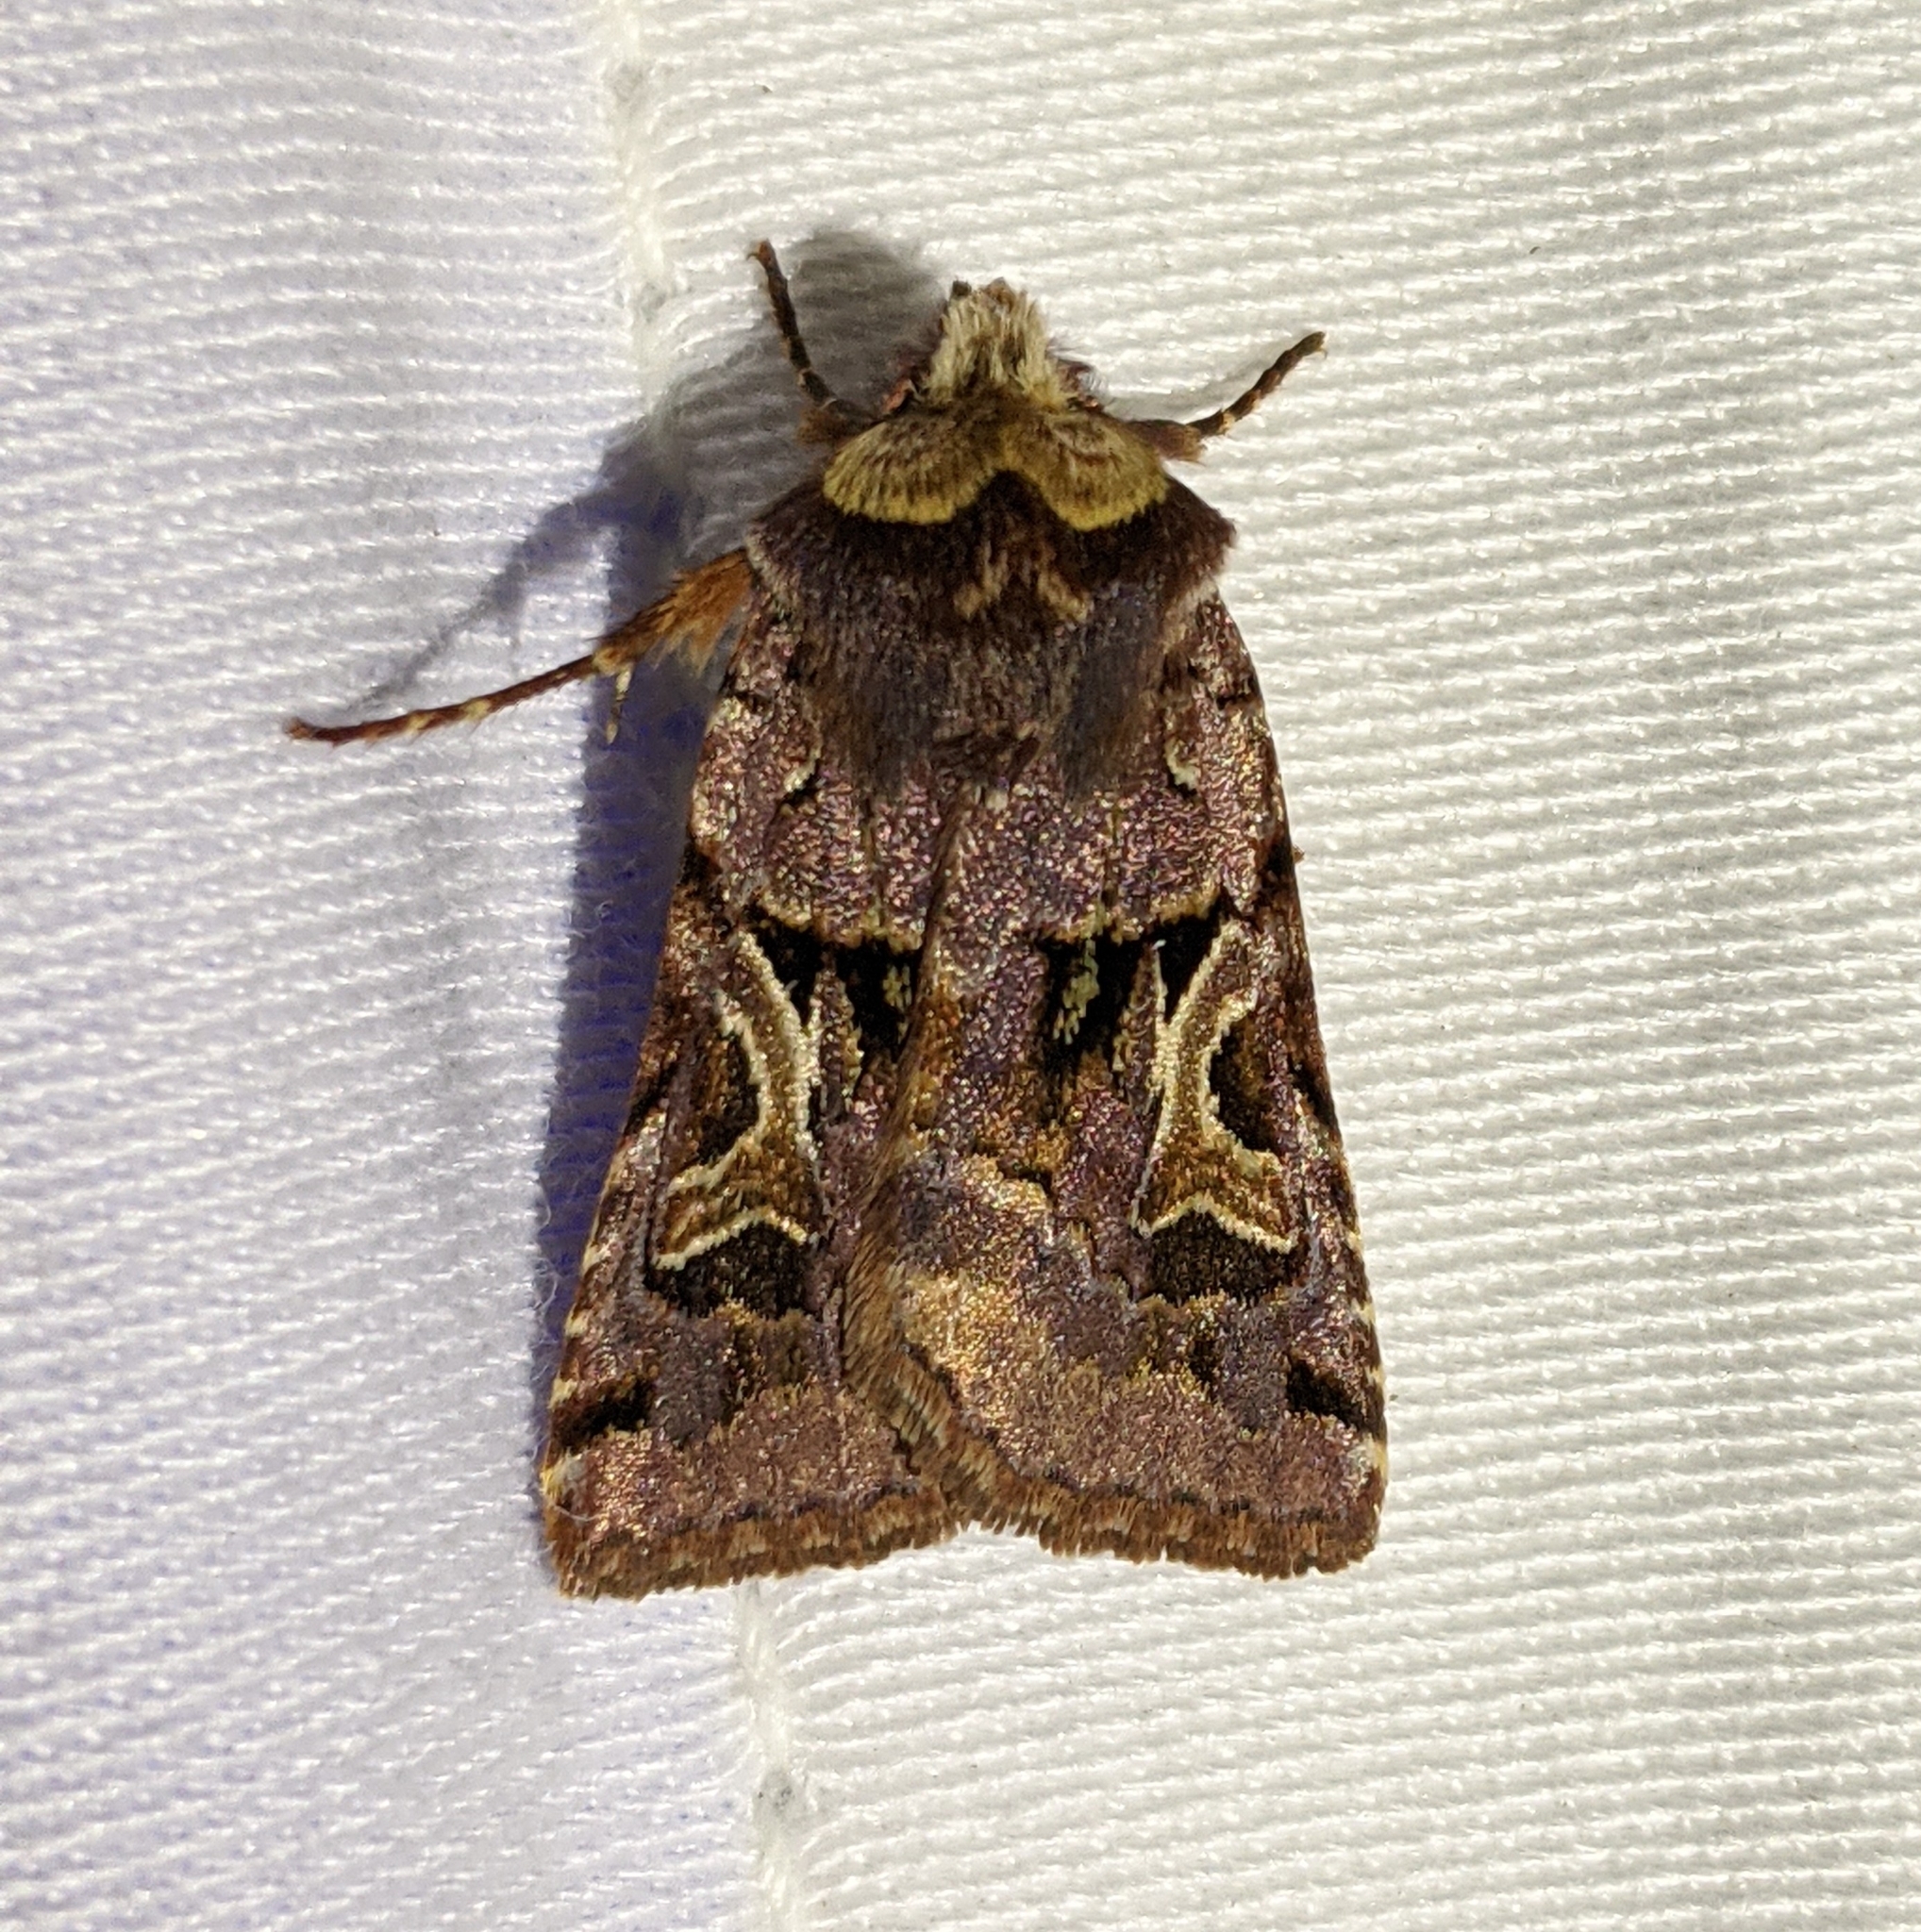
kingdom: Animalia
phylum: Arthropoda
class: Insecta
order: Lepidoptera
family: Noctuidae
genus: Cerastis
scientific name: Cerastis enigmatica
